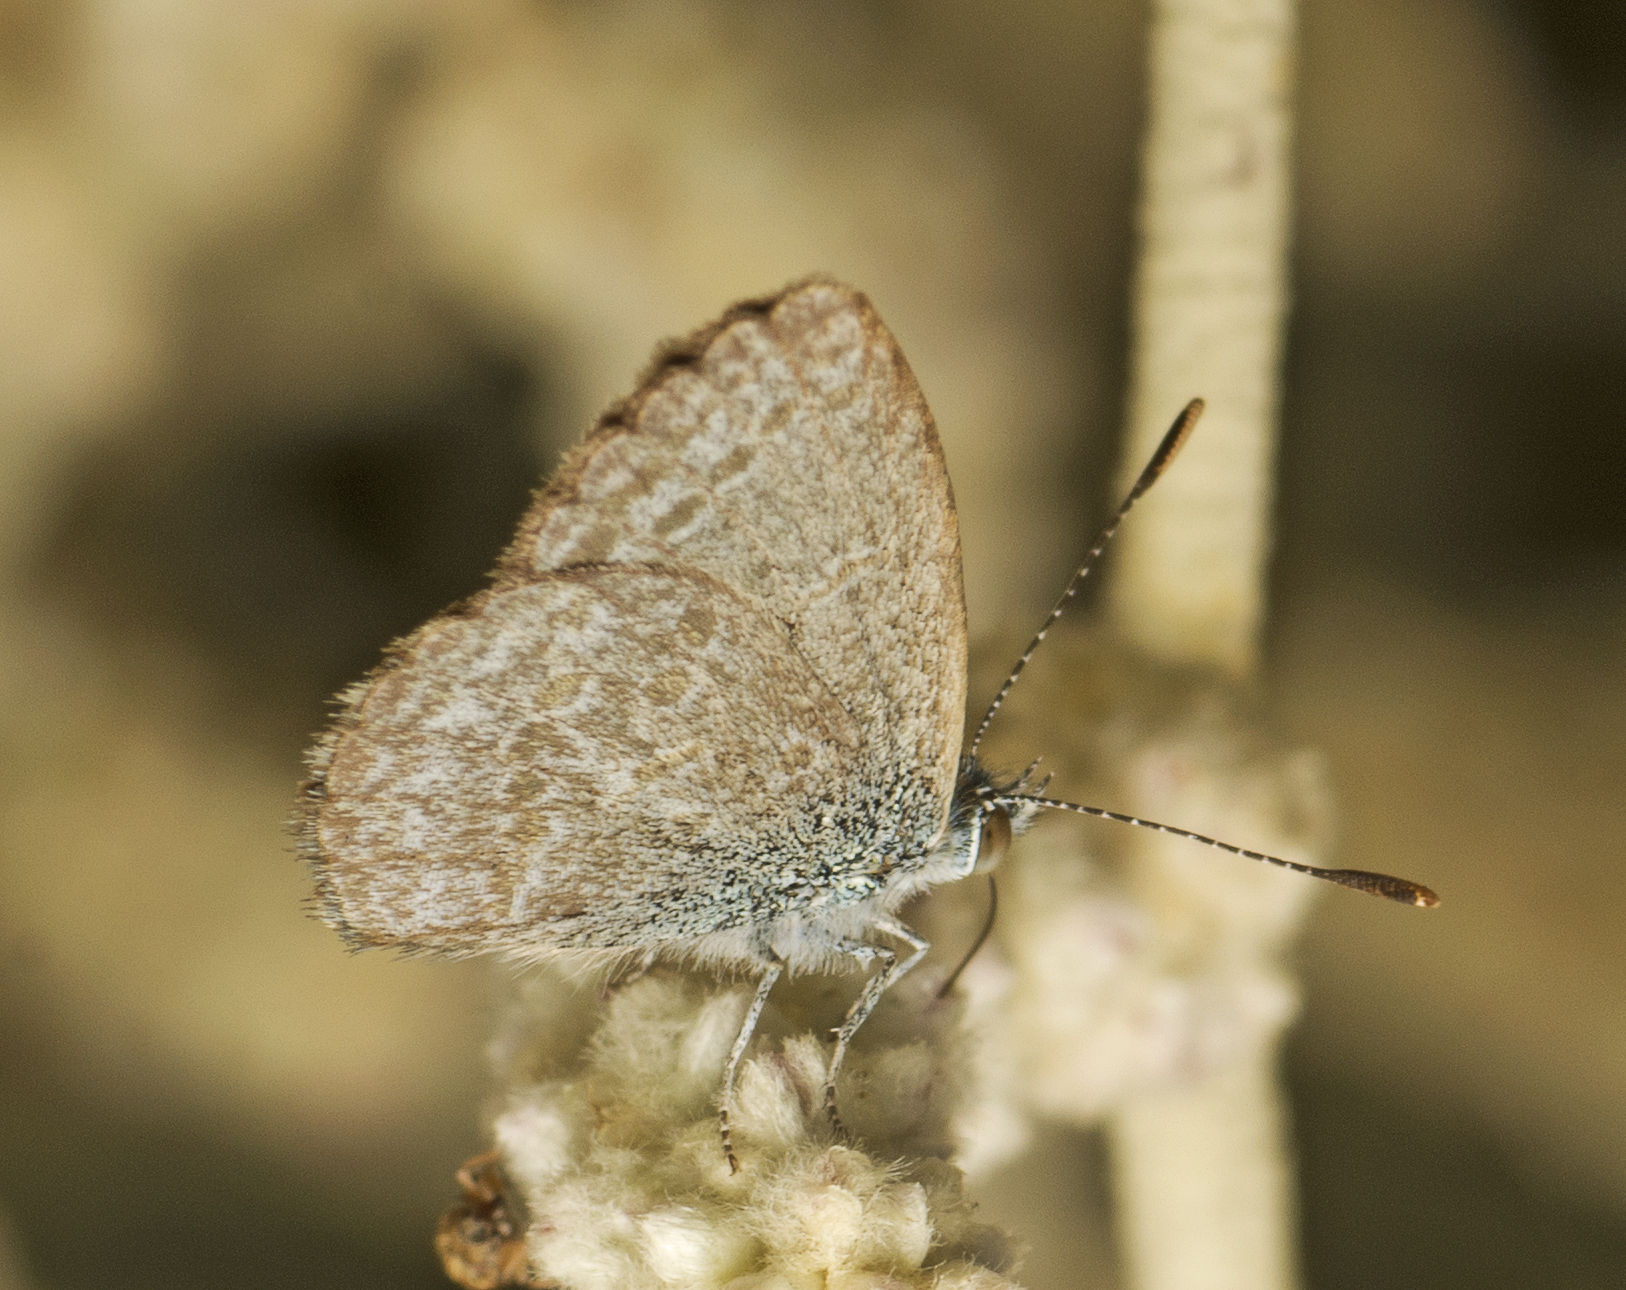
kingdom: Animalia
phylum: Arthropoda
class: Insecta
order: Lepidoptera
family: Lycaenidae
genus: Zizina
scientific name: Zizina otis
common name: Lesser grass blue
